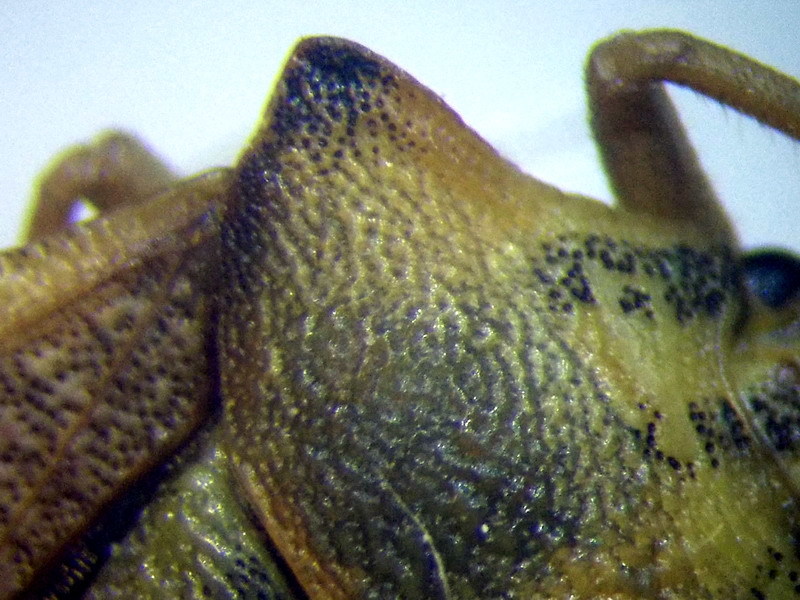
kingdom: Animalia
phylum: Arthropoda
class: Insecta
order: Hemiptera
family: Pentatomidae
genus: Carpocoris
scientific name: Carpocoris coreanus
